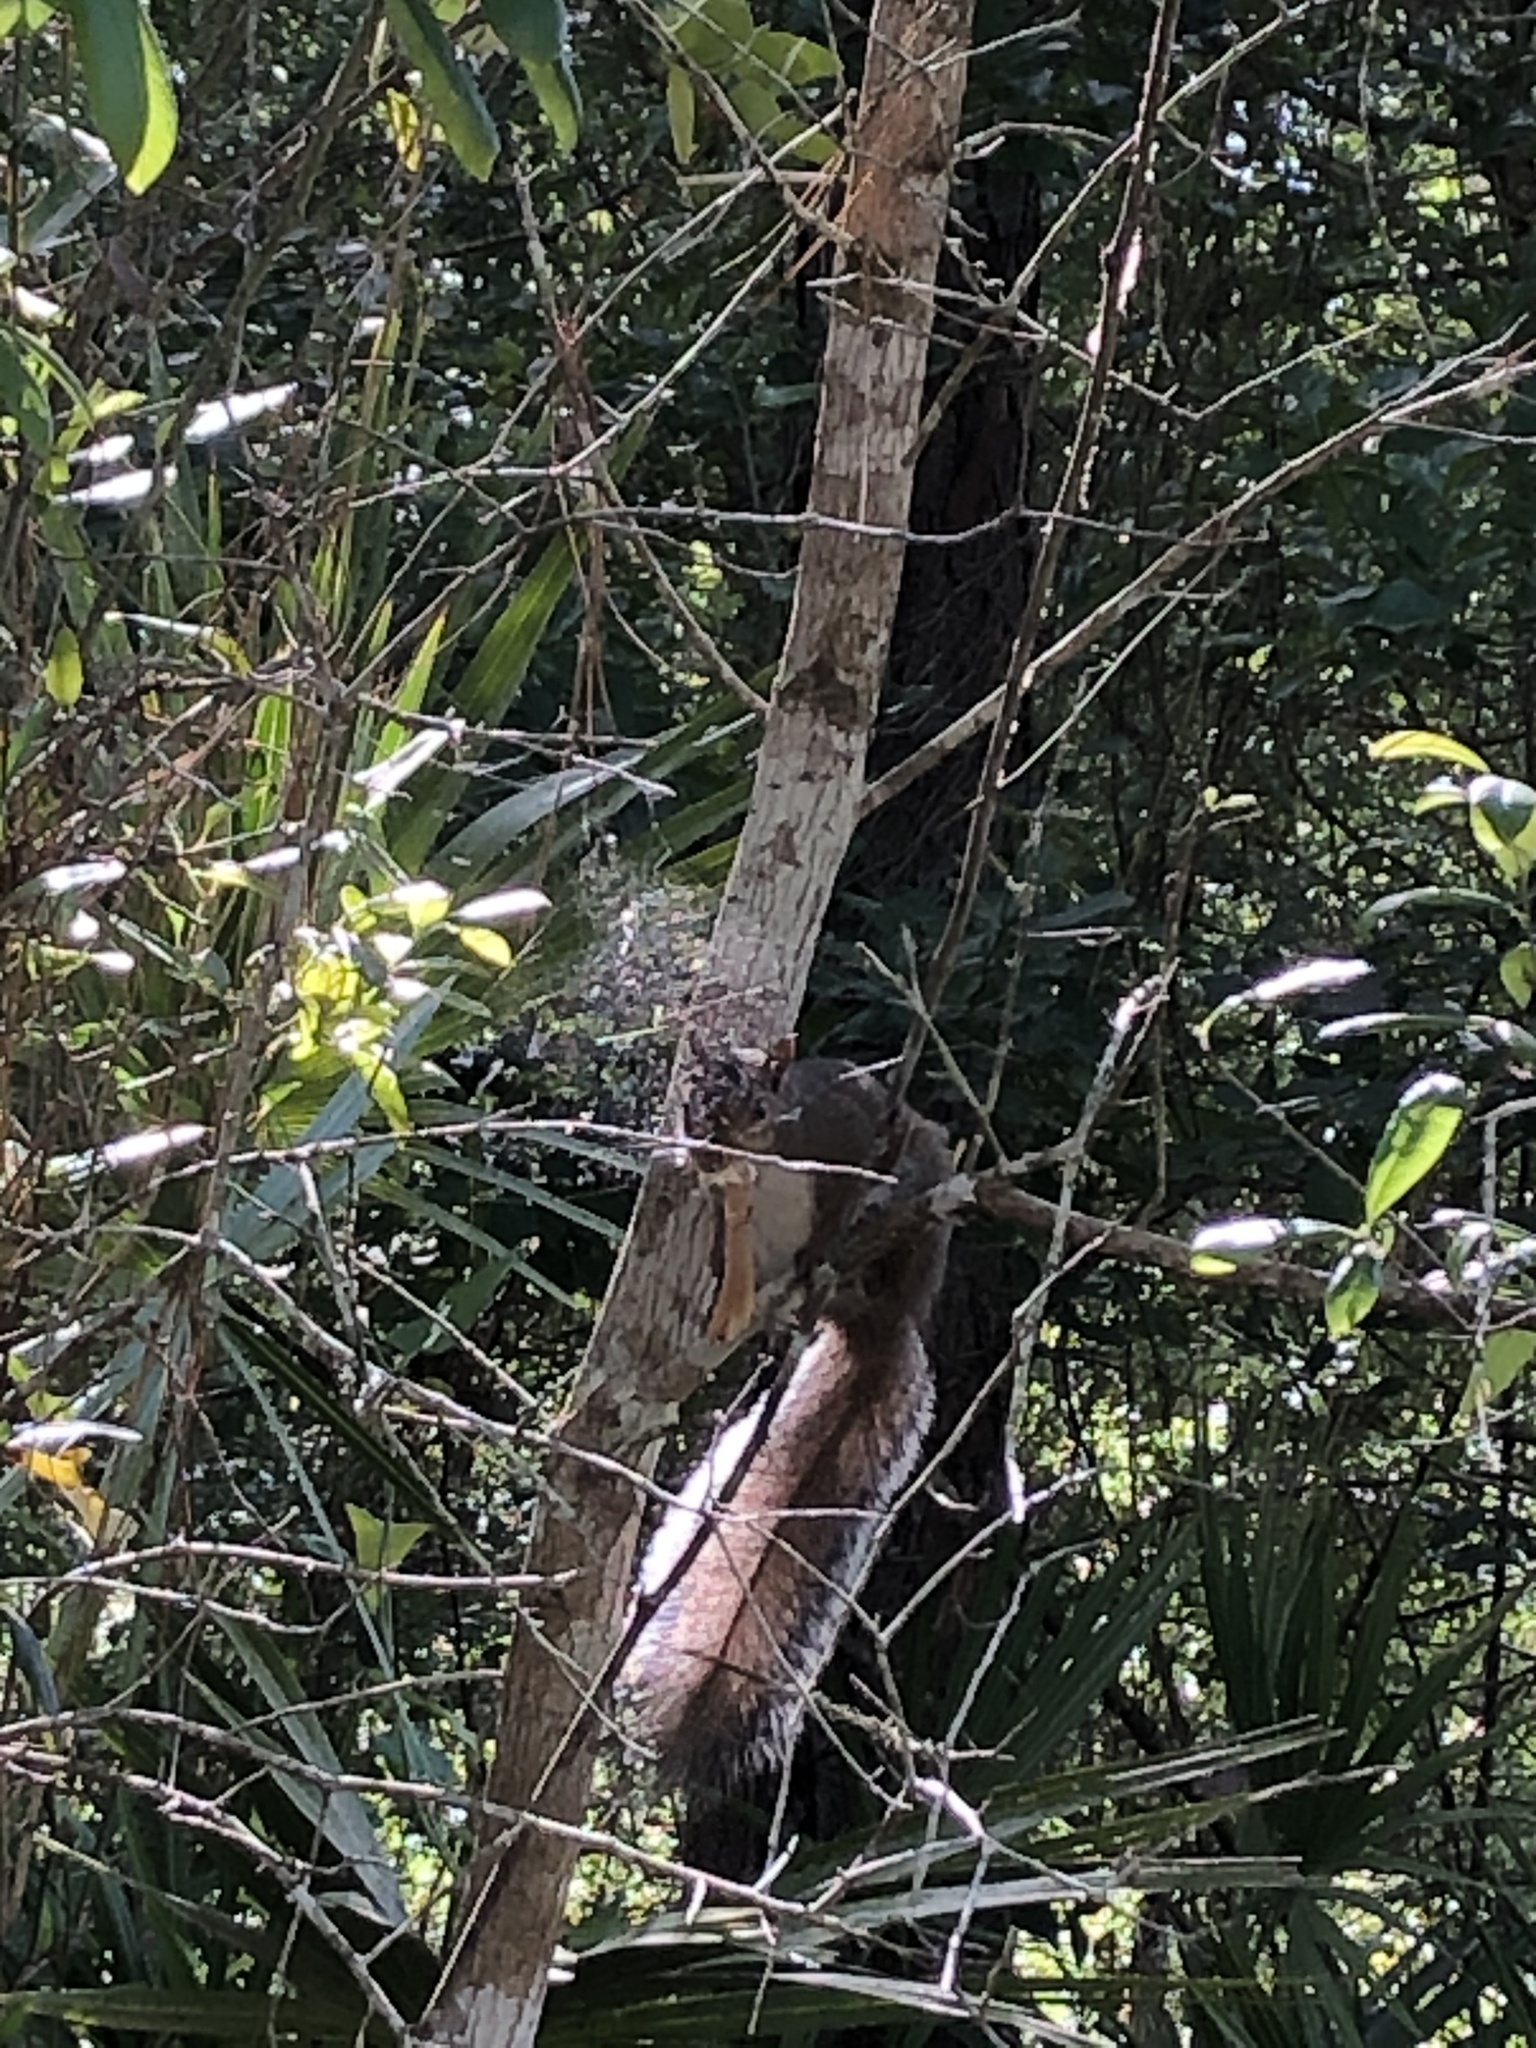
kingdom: Animalia
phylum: Chordata
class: Mammalia
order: Rodentia
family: Sciuridae
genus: Sciurus
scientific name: Sciurus carolinensis
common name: Eastern gray squirrel
